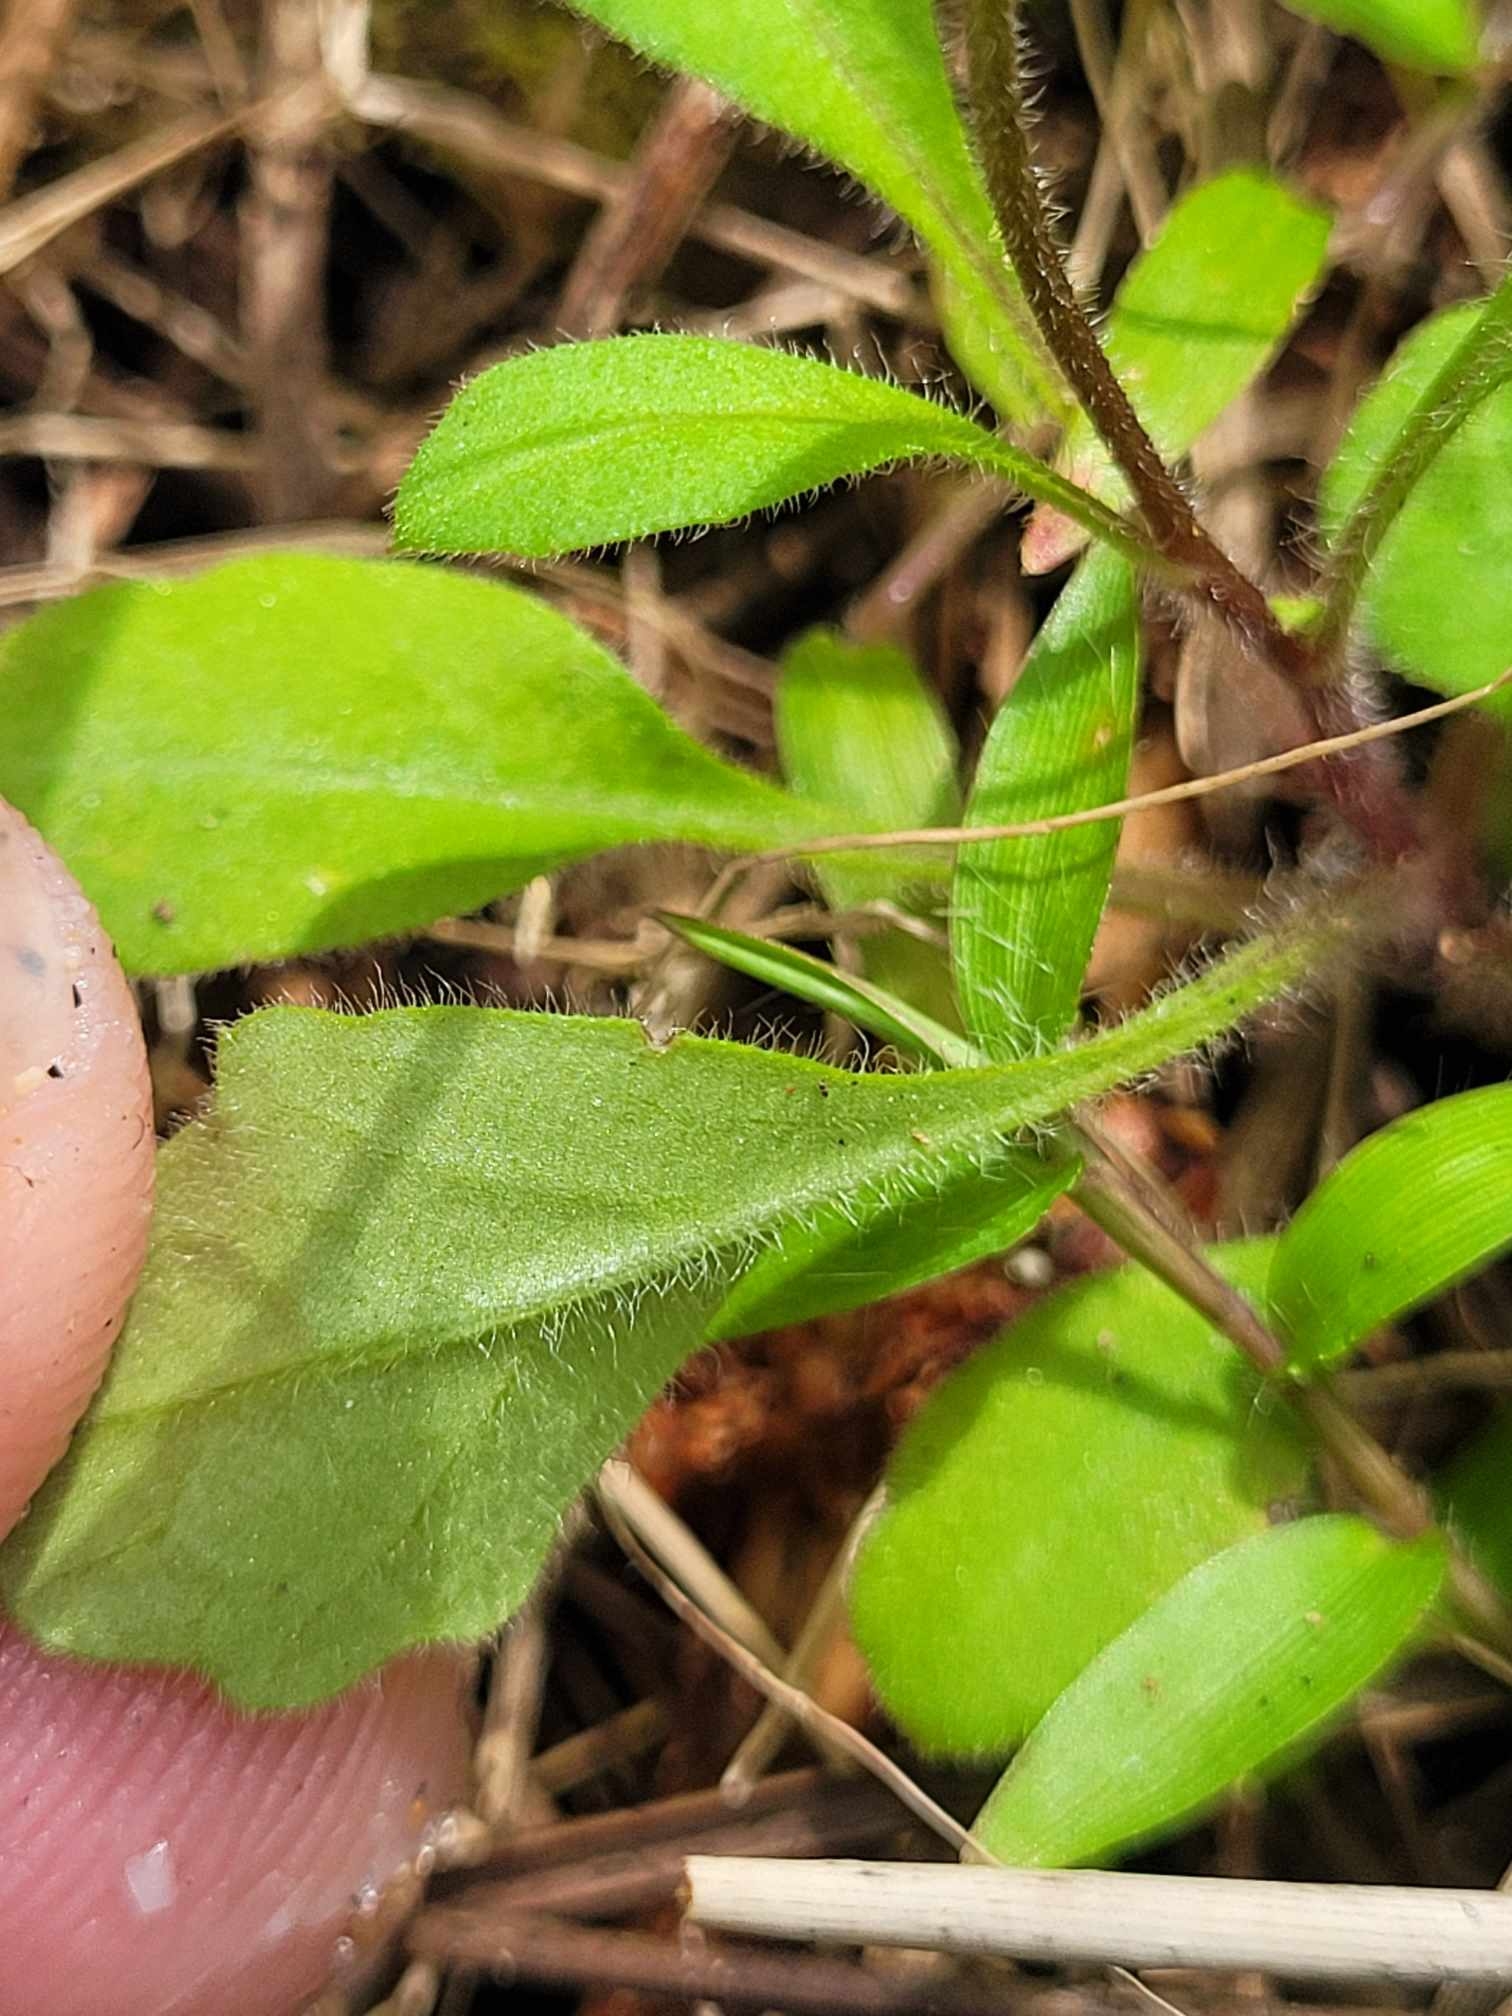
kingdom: Plantae
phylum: Tracheophyta
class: Magnoliopsida
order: Asterales
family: Asteraceae
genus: Lagenophora
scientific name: Lagenophora stipitata
